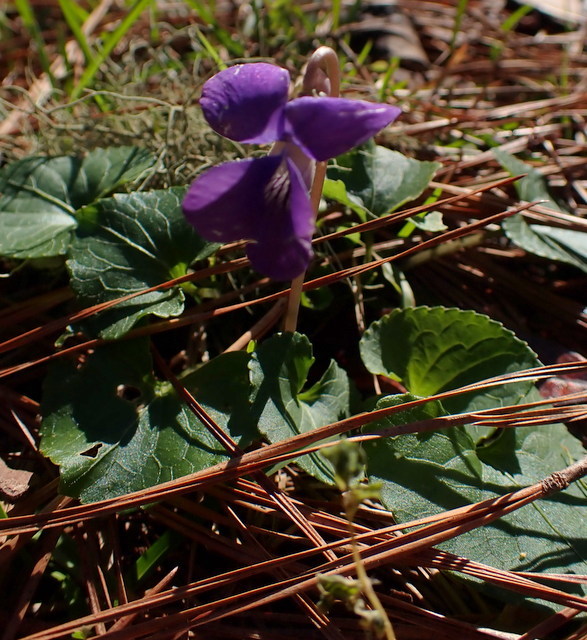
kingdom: Plantae
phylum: Tracheophyta
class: Magnoliopsida
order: Malpighiales
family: Violaceae
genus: Viola
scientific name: Viola sororia
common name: Dooryard violet
